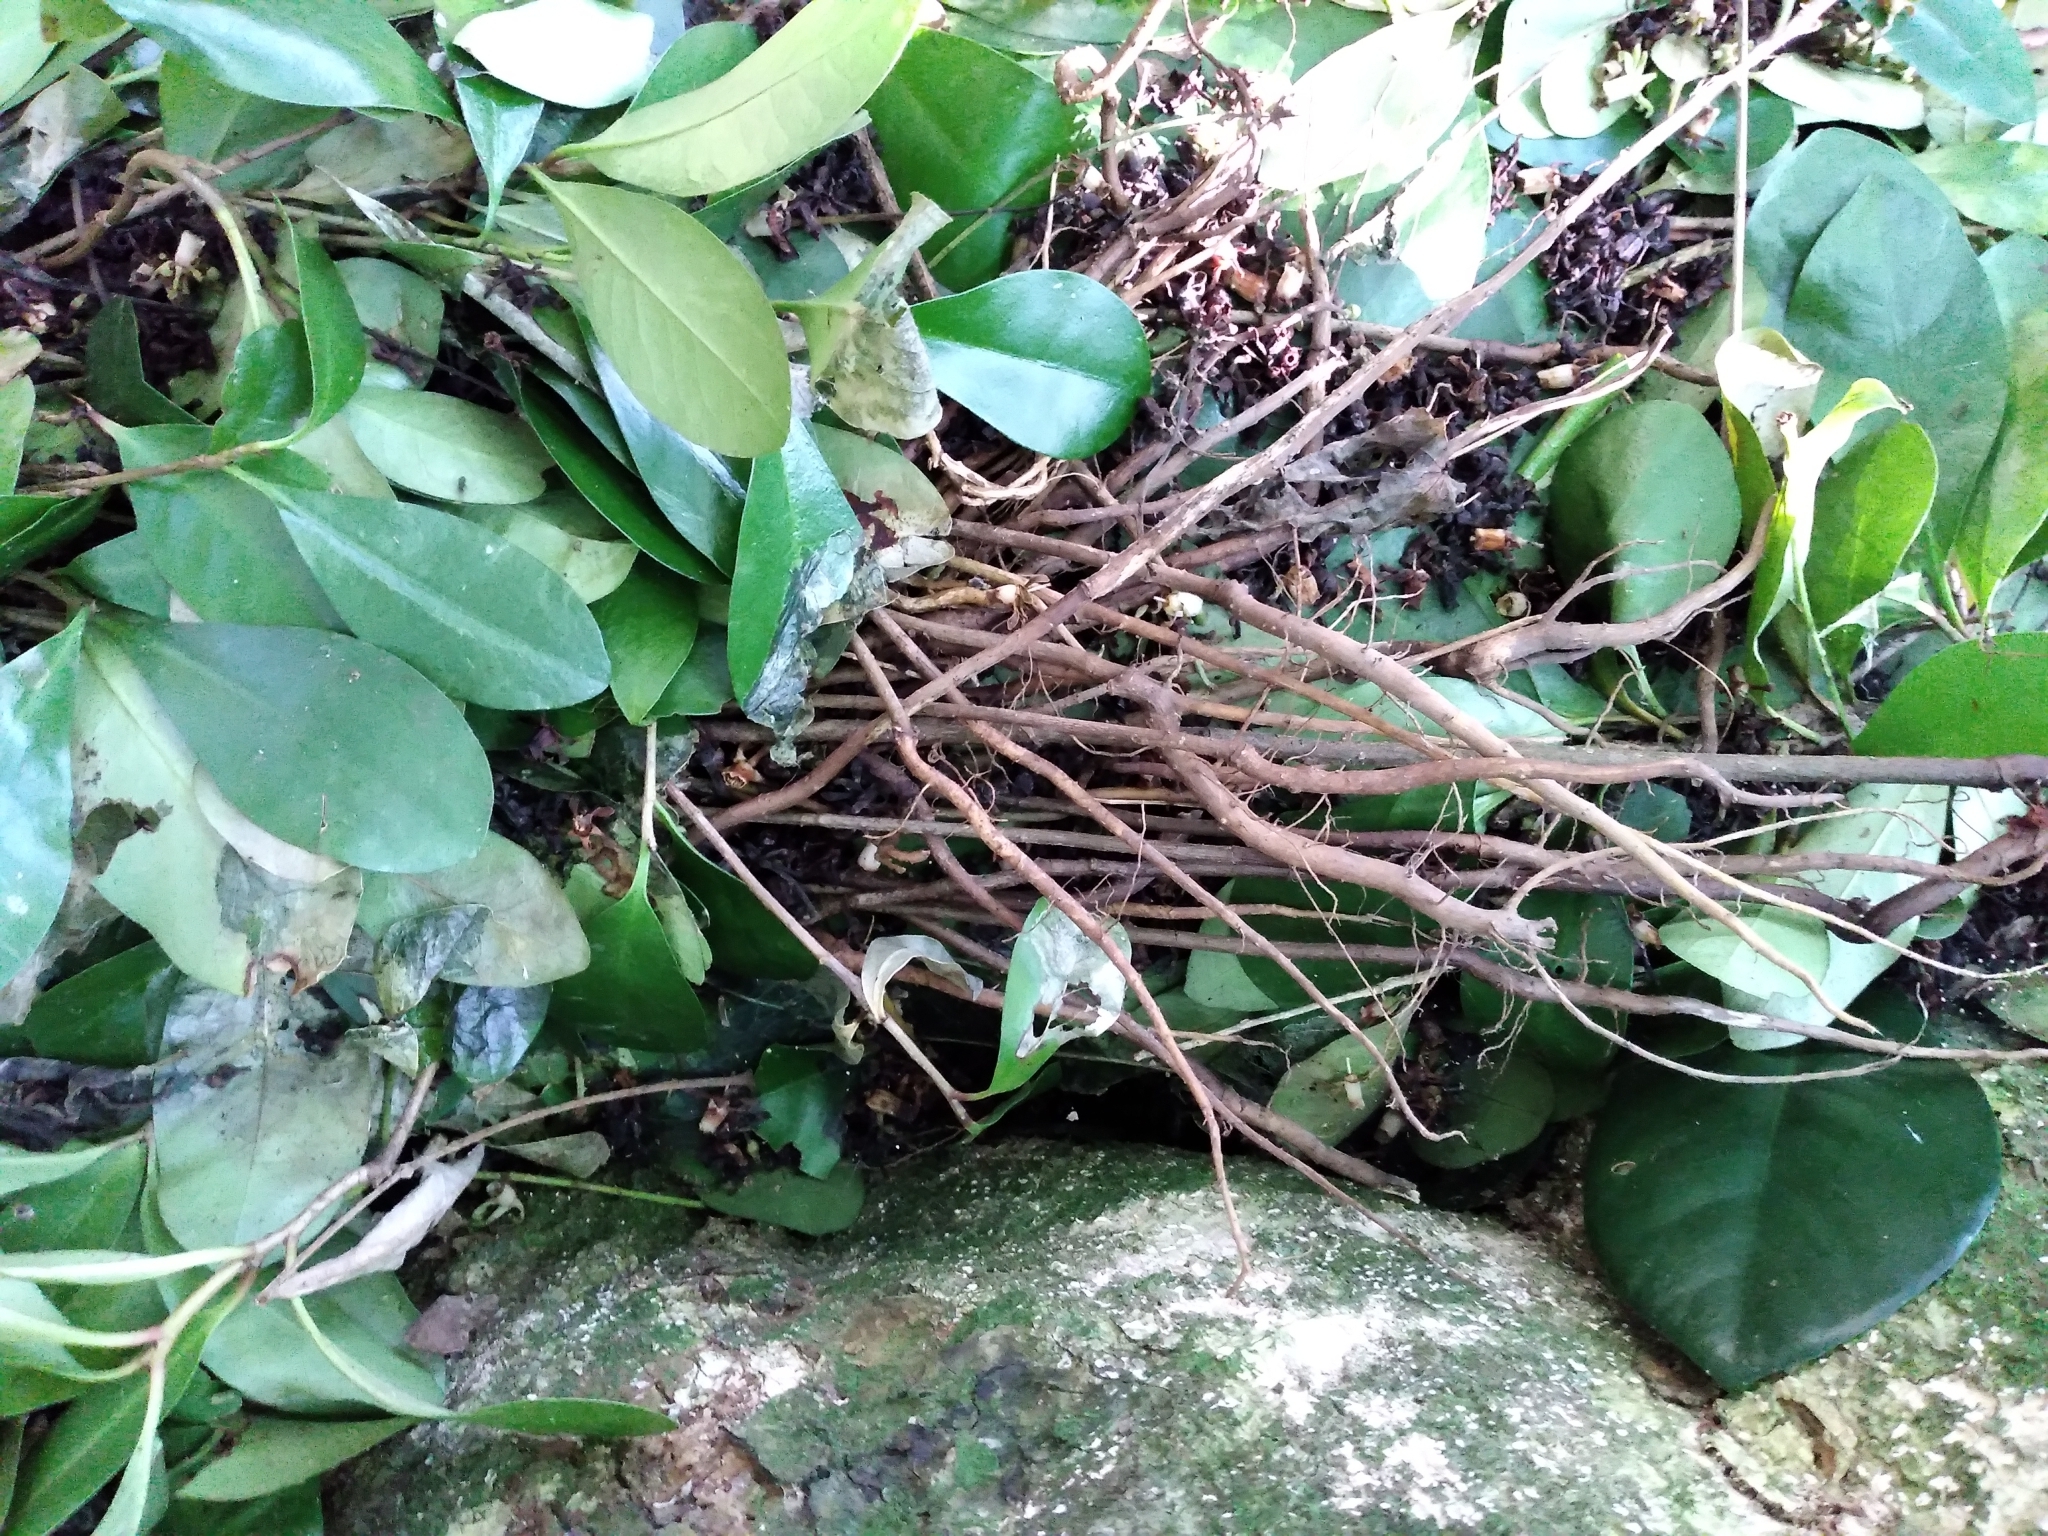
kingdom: Plantae
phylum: Tracheophyta
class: Magnoliopsida
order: Cucurbitales
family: Corynocarpaceae
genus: Corynocarpus
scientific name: Corynocarpus laevigatus
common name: New zealand laurel
